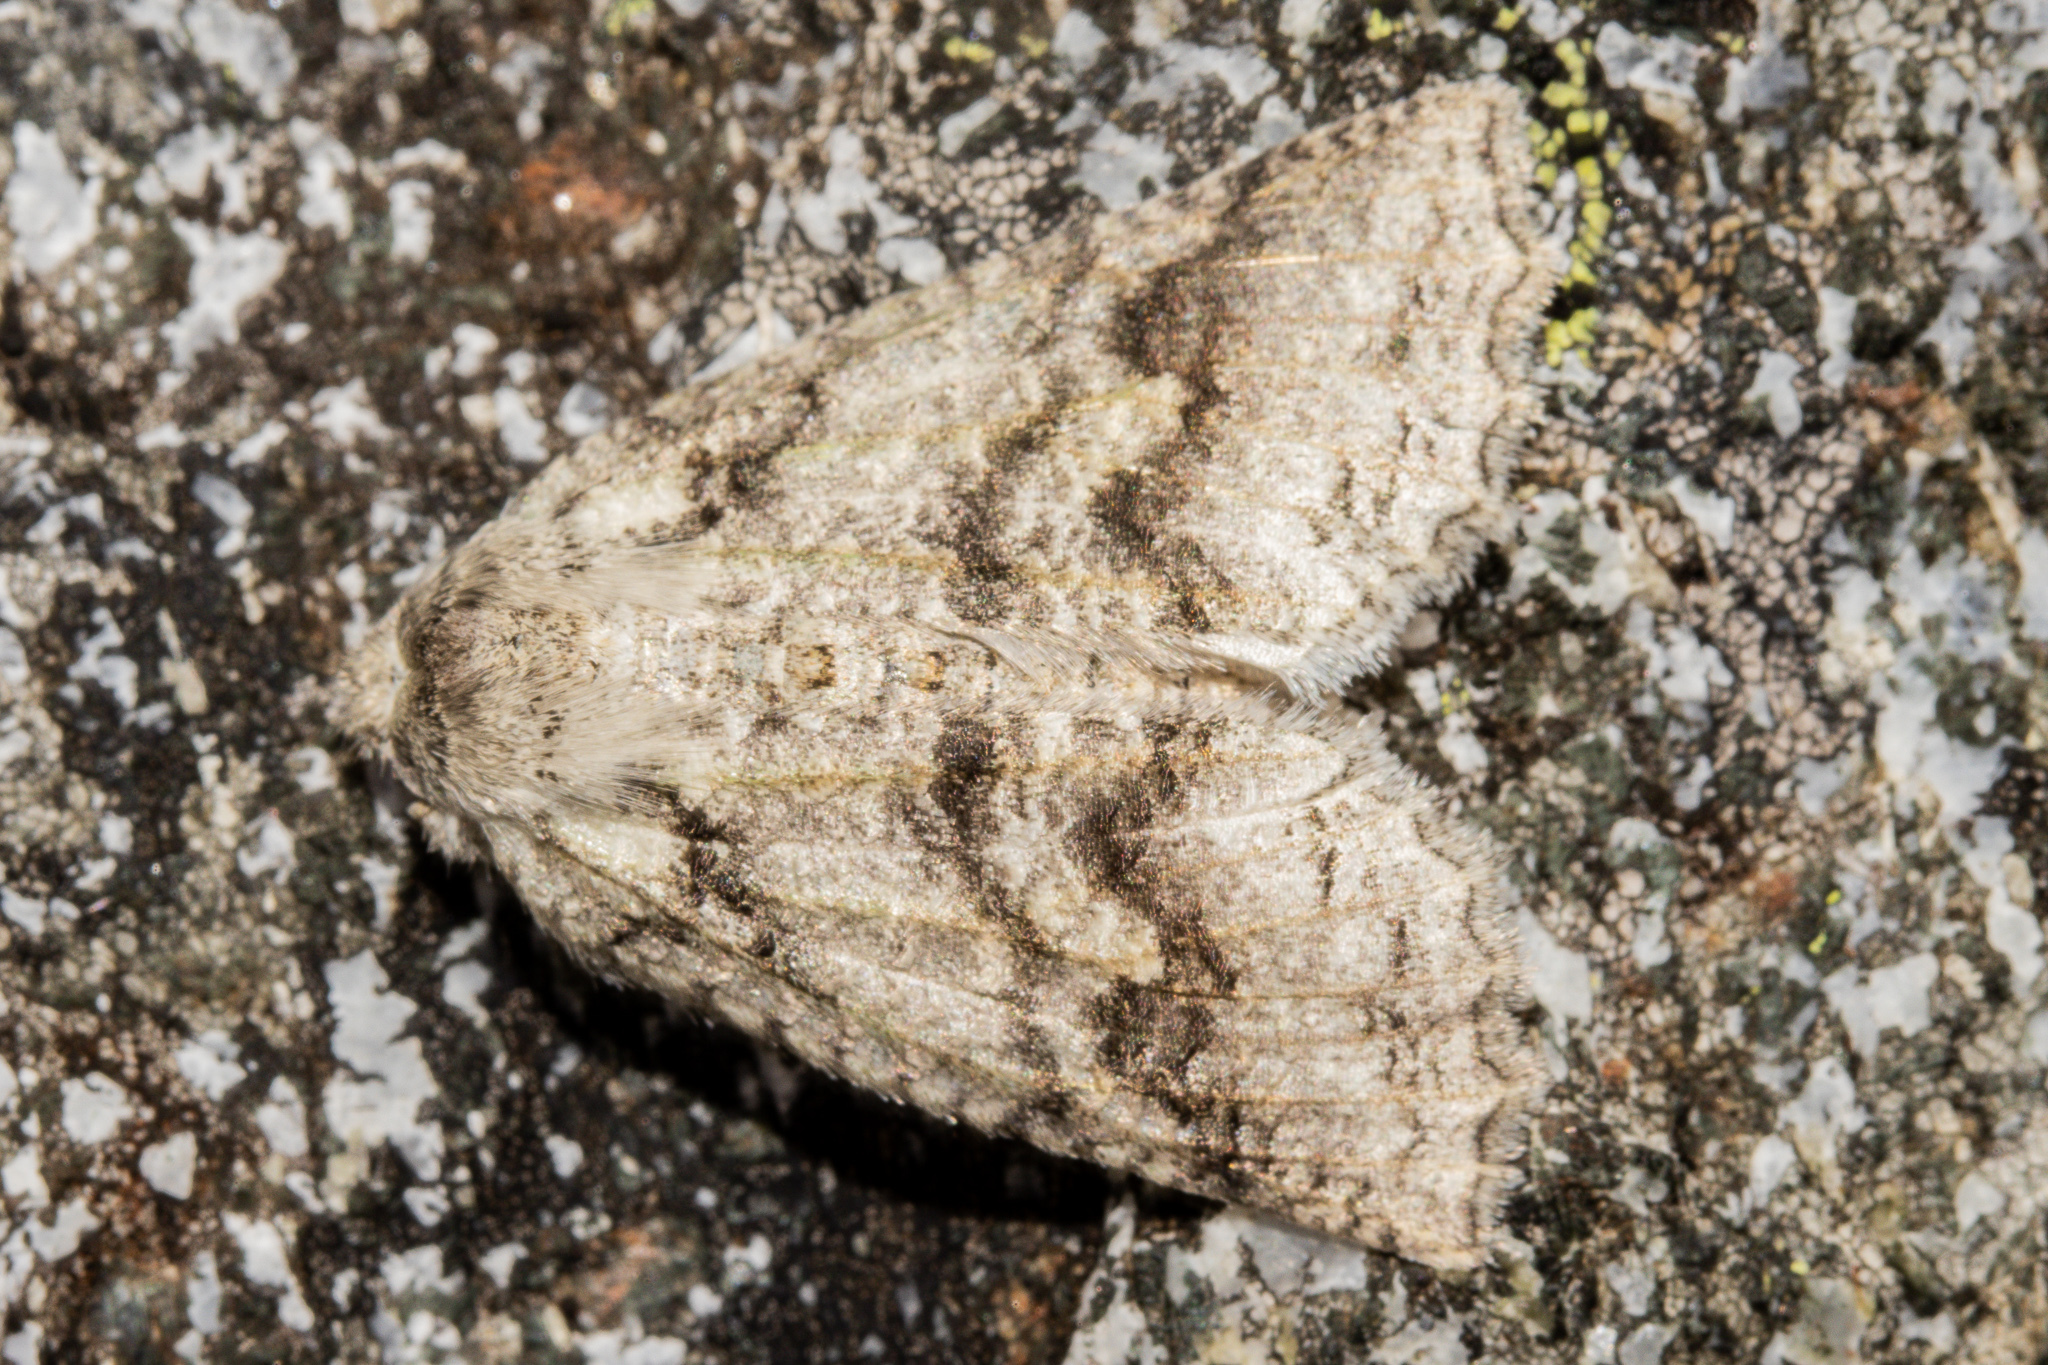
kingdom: Animalia
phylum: Arthropoda
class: Insecta
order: Lepidoptera
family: Geometridae
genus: Declana
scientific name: Declana floccosa
